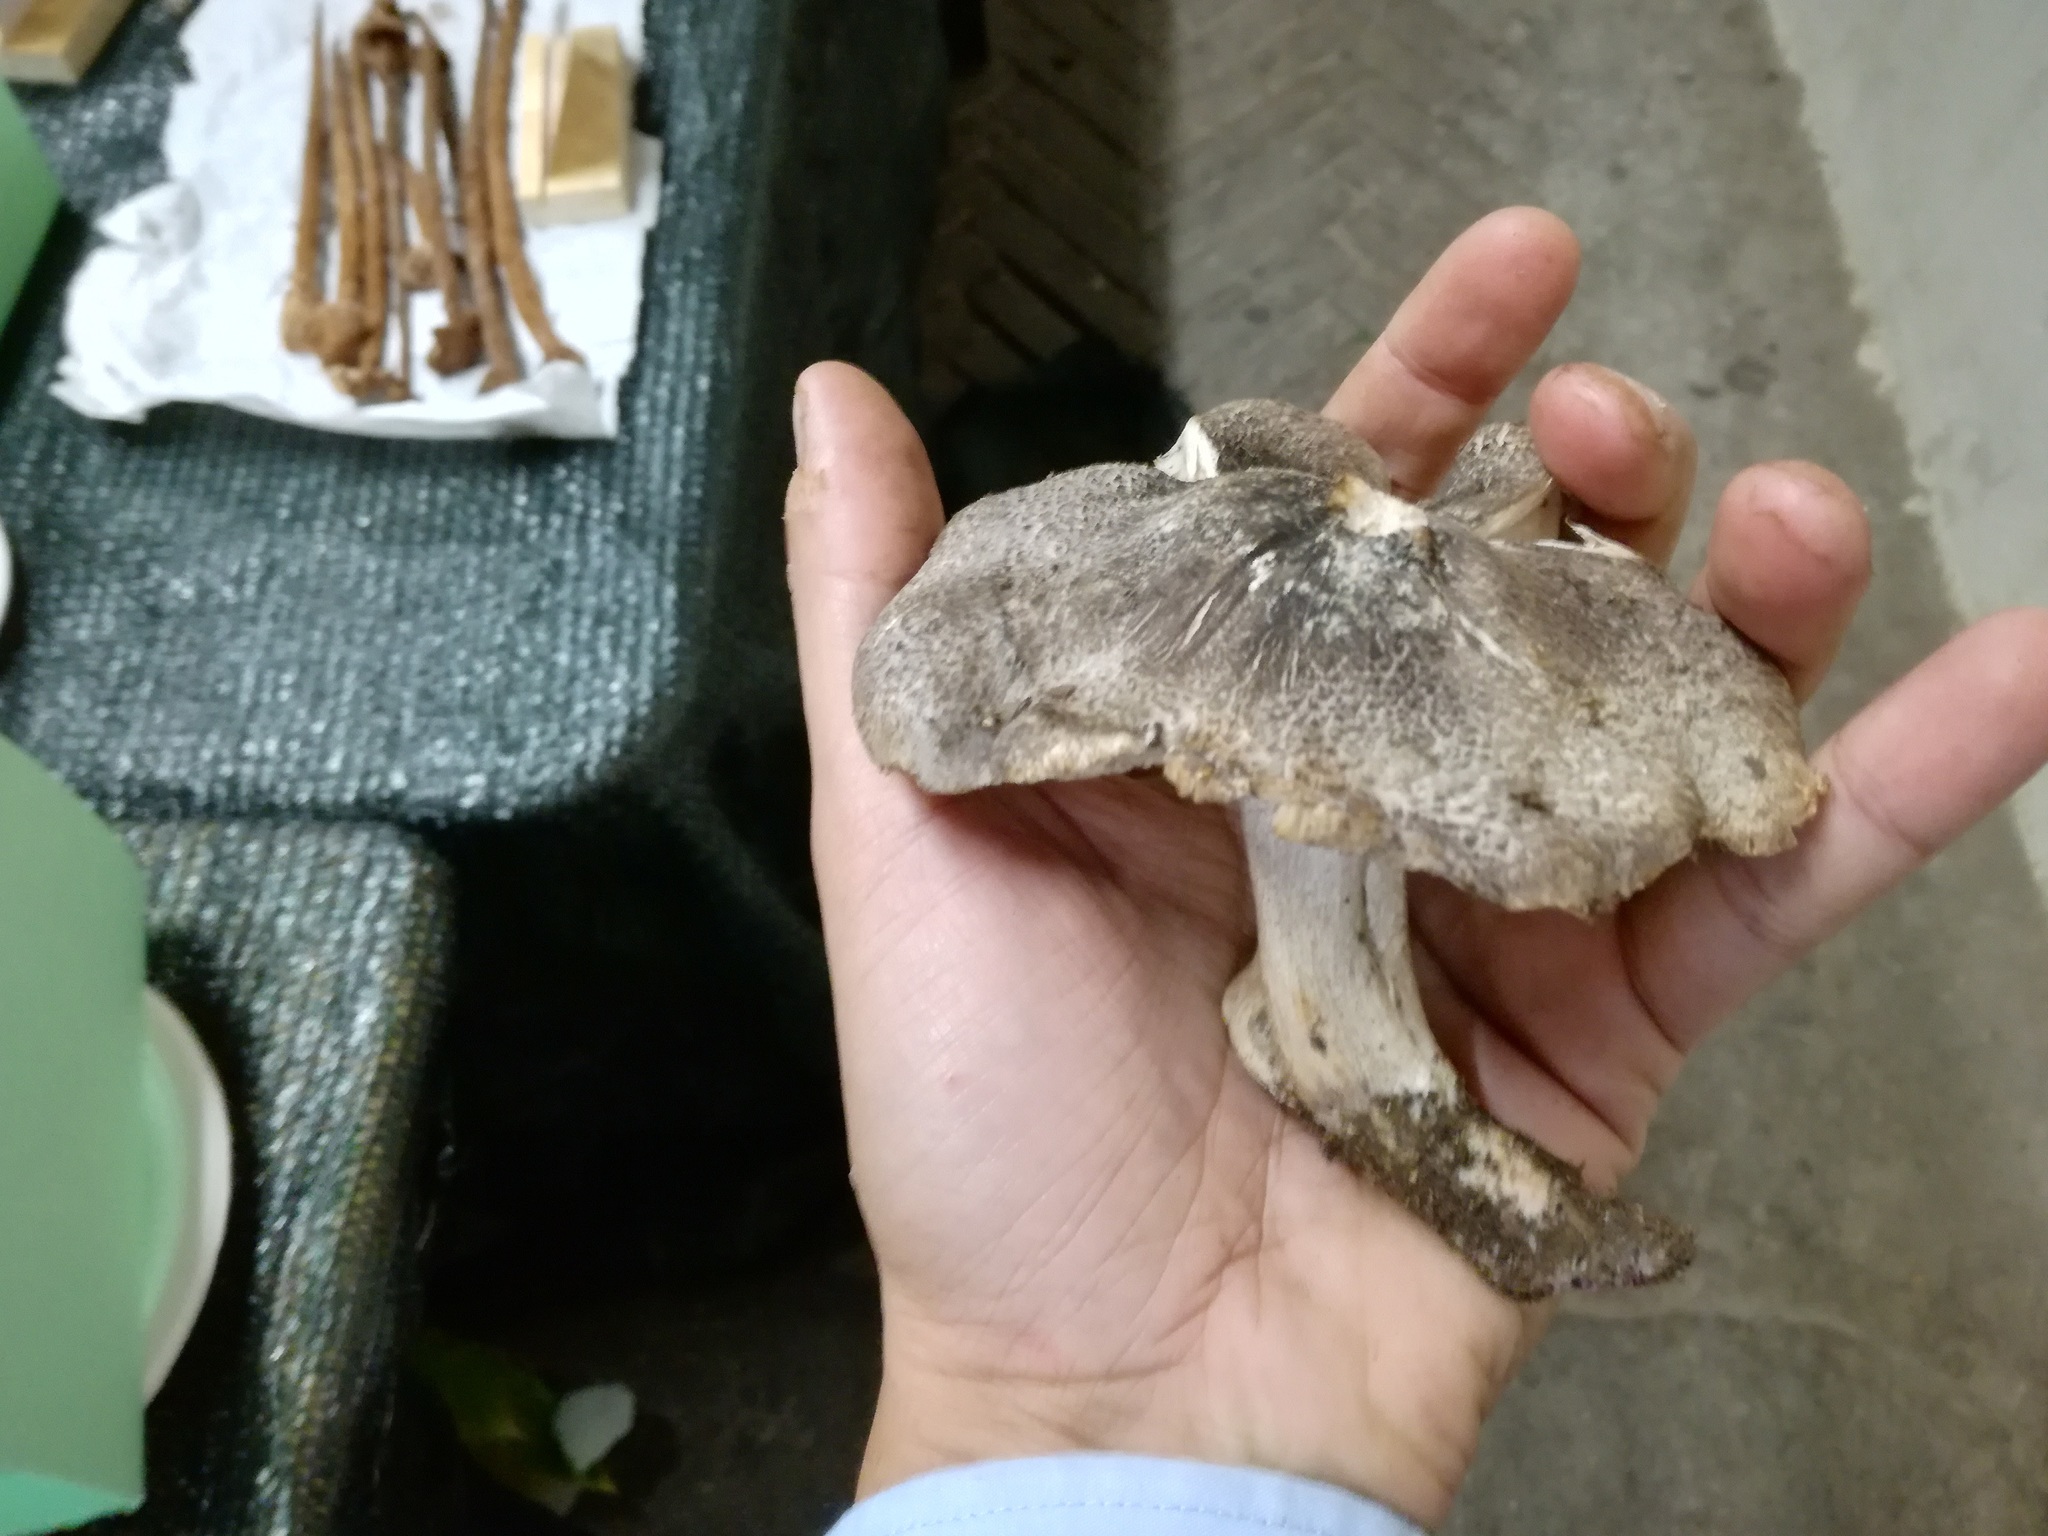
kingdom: Fungi
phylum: Basidiomycota
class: Agaricomycetes
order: Agaricales
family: Tricholomataceae
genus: Tricholoma
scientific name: Tricholoma basirubens
